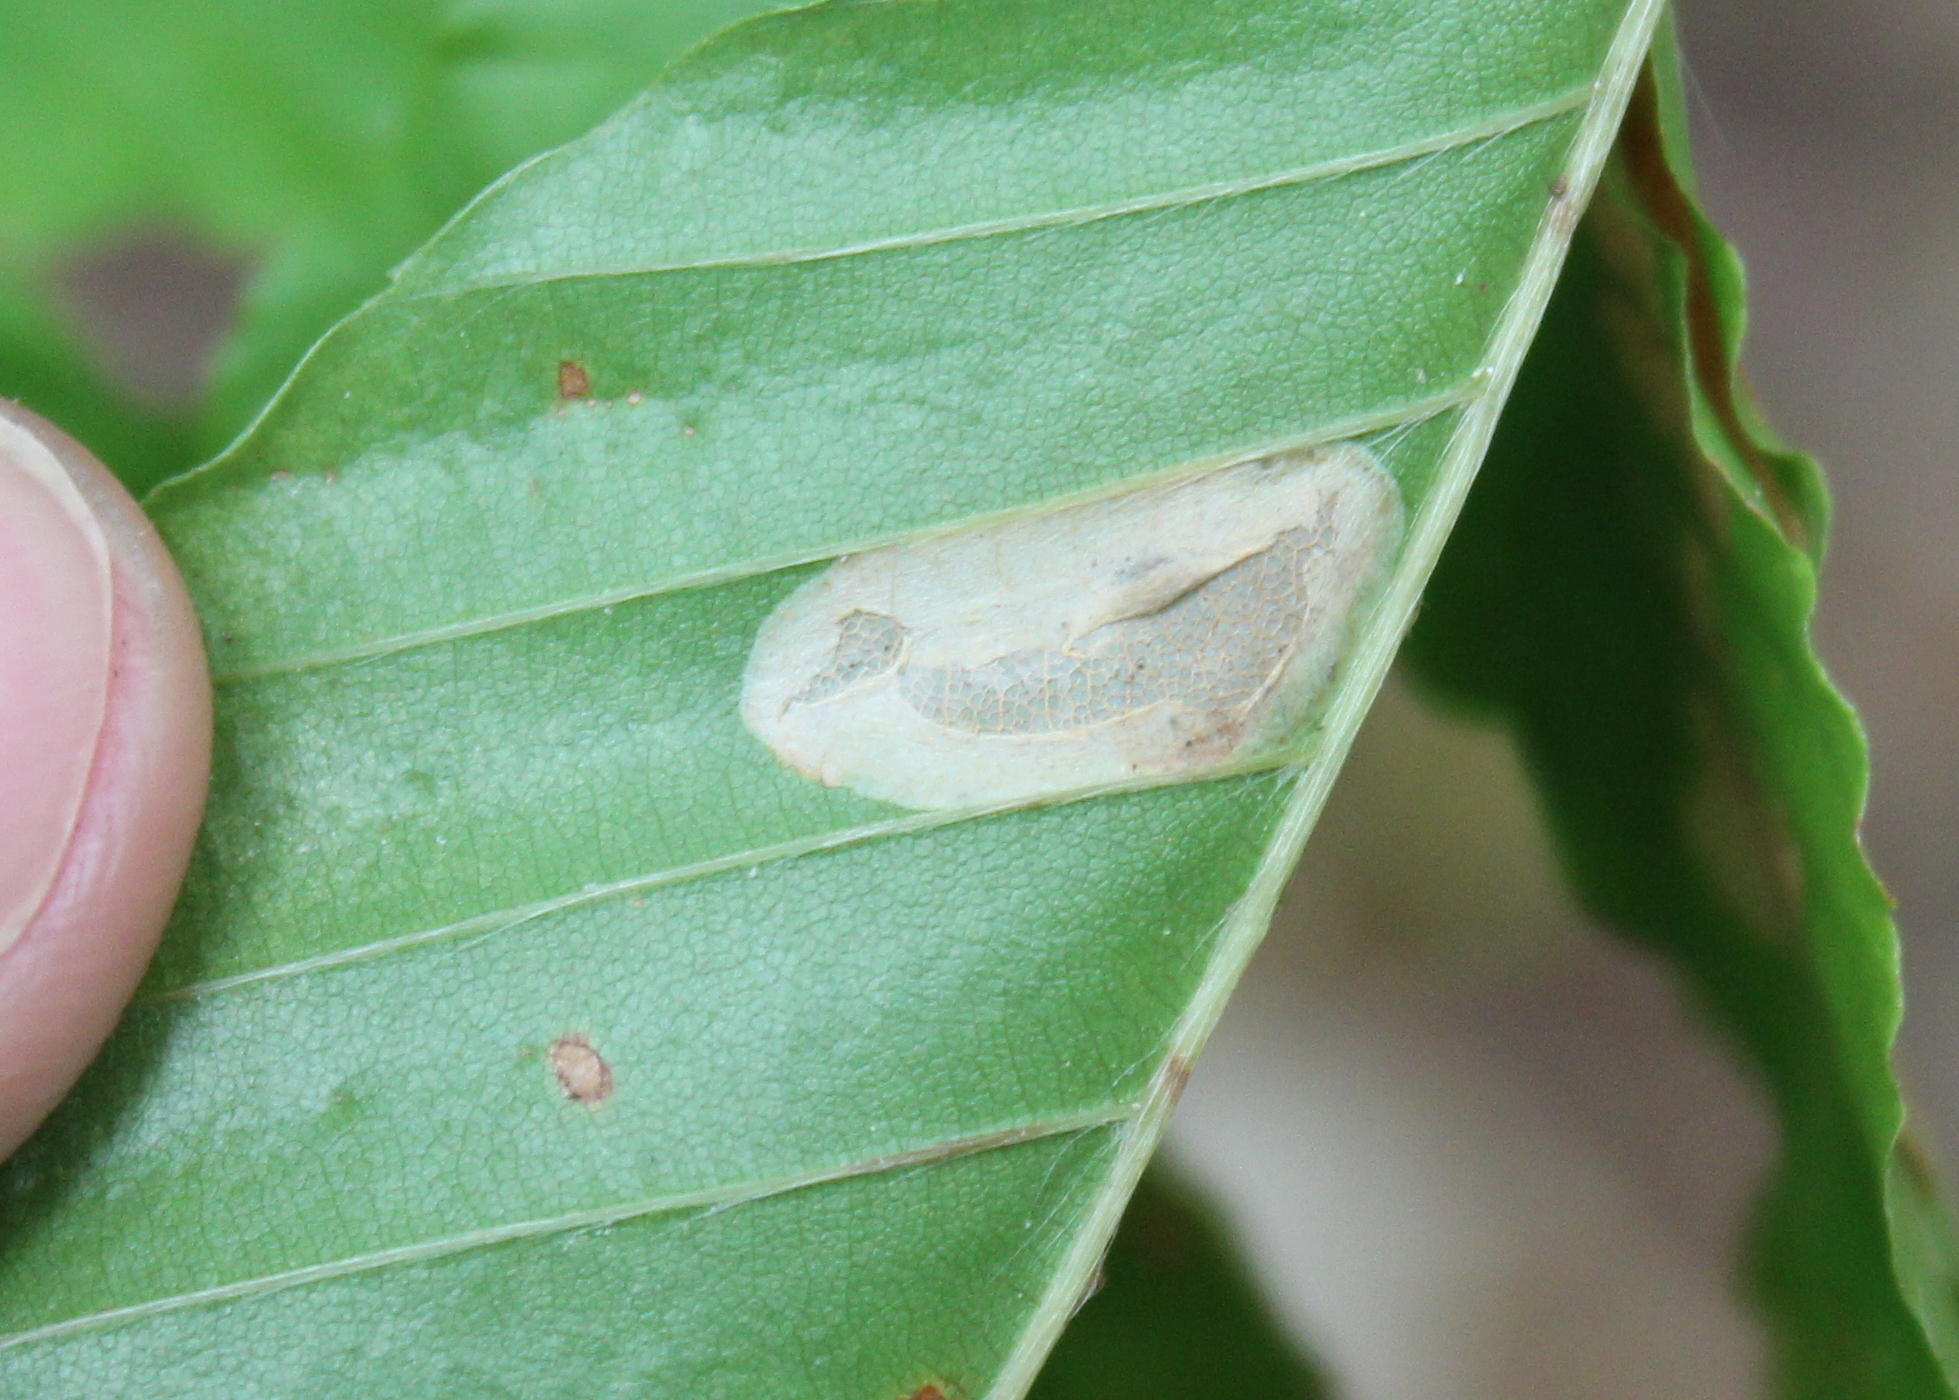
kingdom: Animalia
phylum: Arthropoda
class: Insecta
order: Lepidoptera
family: Gracillariidae
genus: Phyllonorycter
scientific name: Phyllonorycter maestingella
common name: Beech midget
